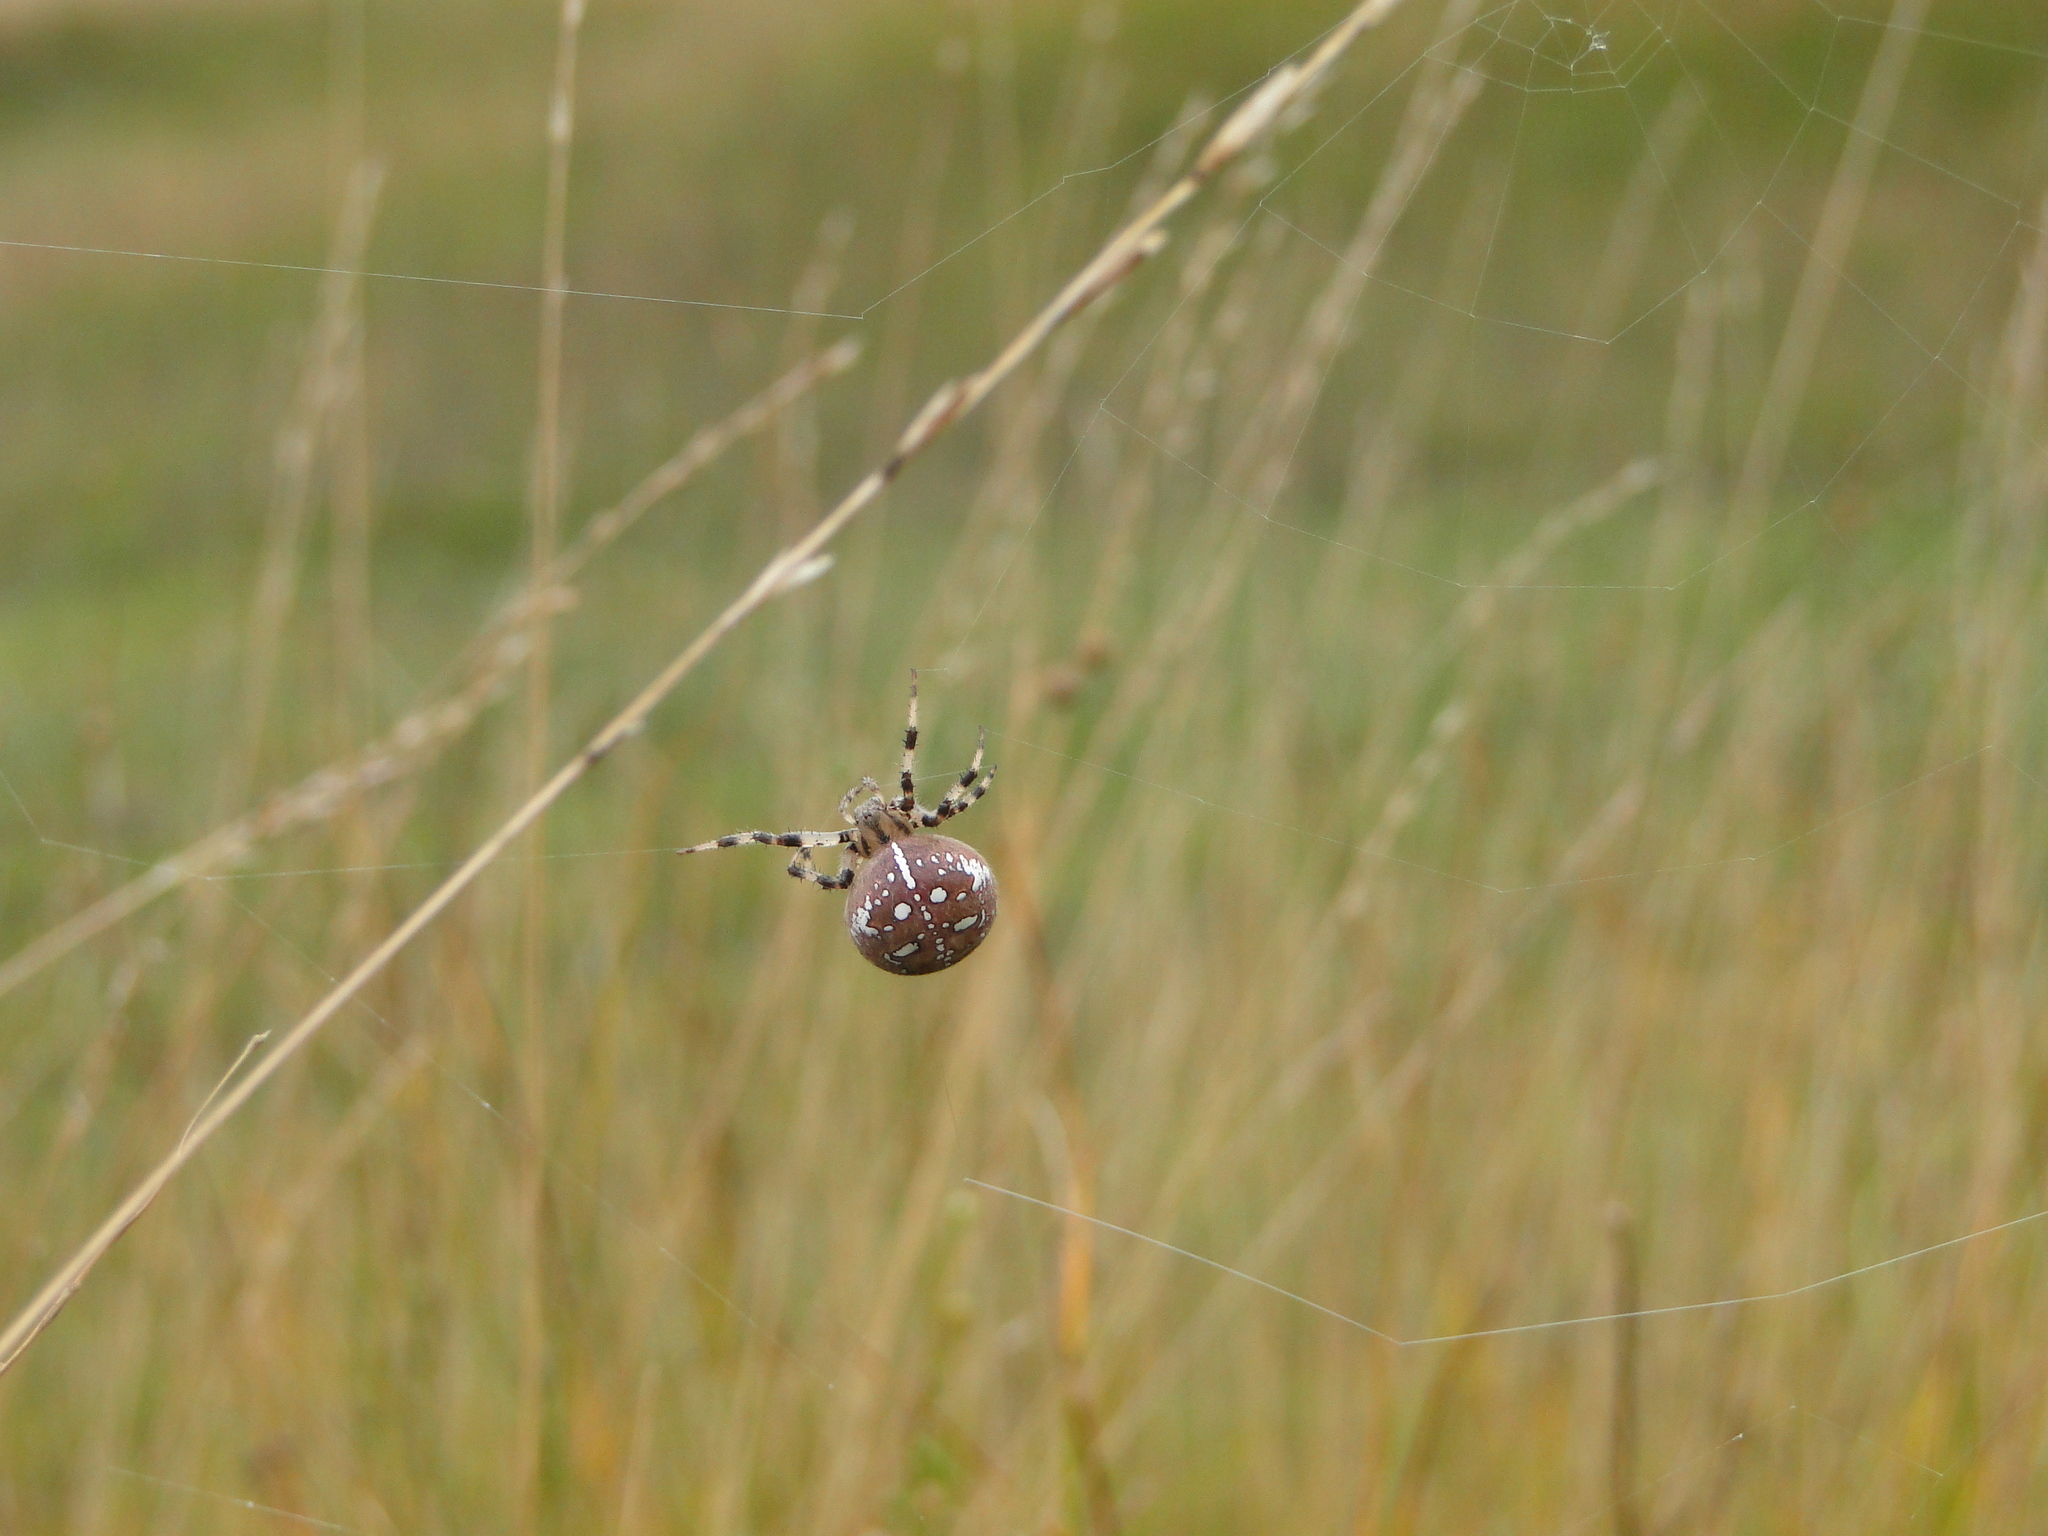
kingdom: Animalia
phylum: Arthropoda
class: Arachnida
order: Araneae
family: Araneidae
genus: Araneus
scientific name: Araneus quadratus
